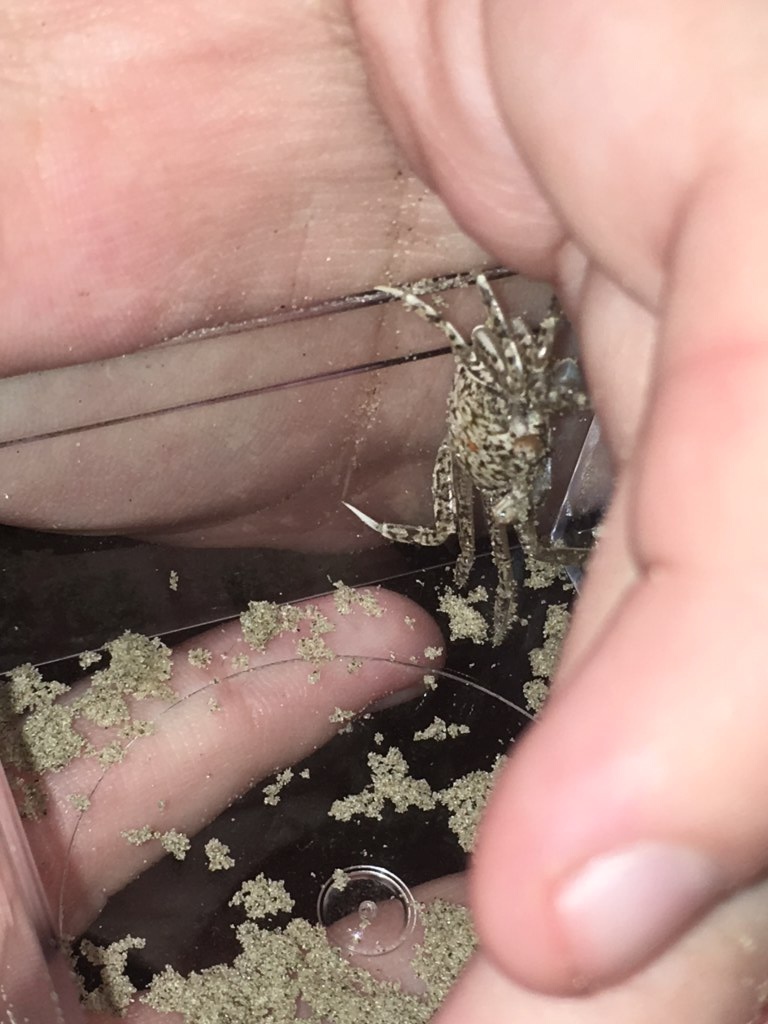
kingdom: Animalia
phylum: Arthropoda
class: Malacostraca
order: Decapoda
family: Ocypodidae
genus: Ocypode
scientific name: Ocypode quadrata
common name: Ghost crab
